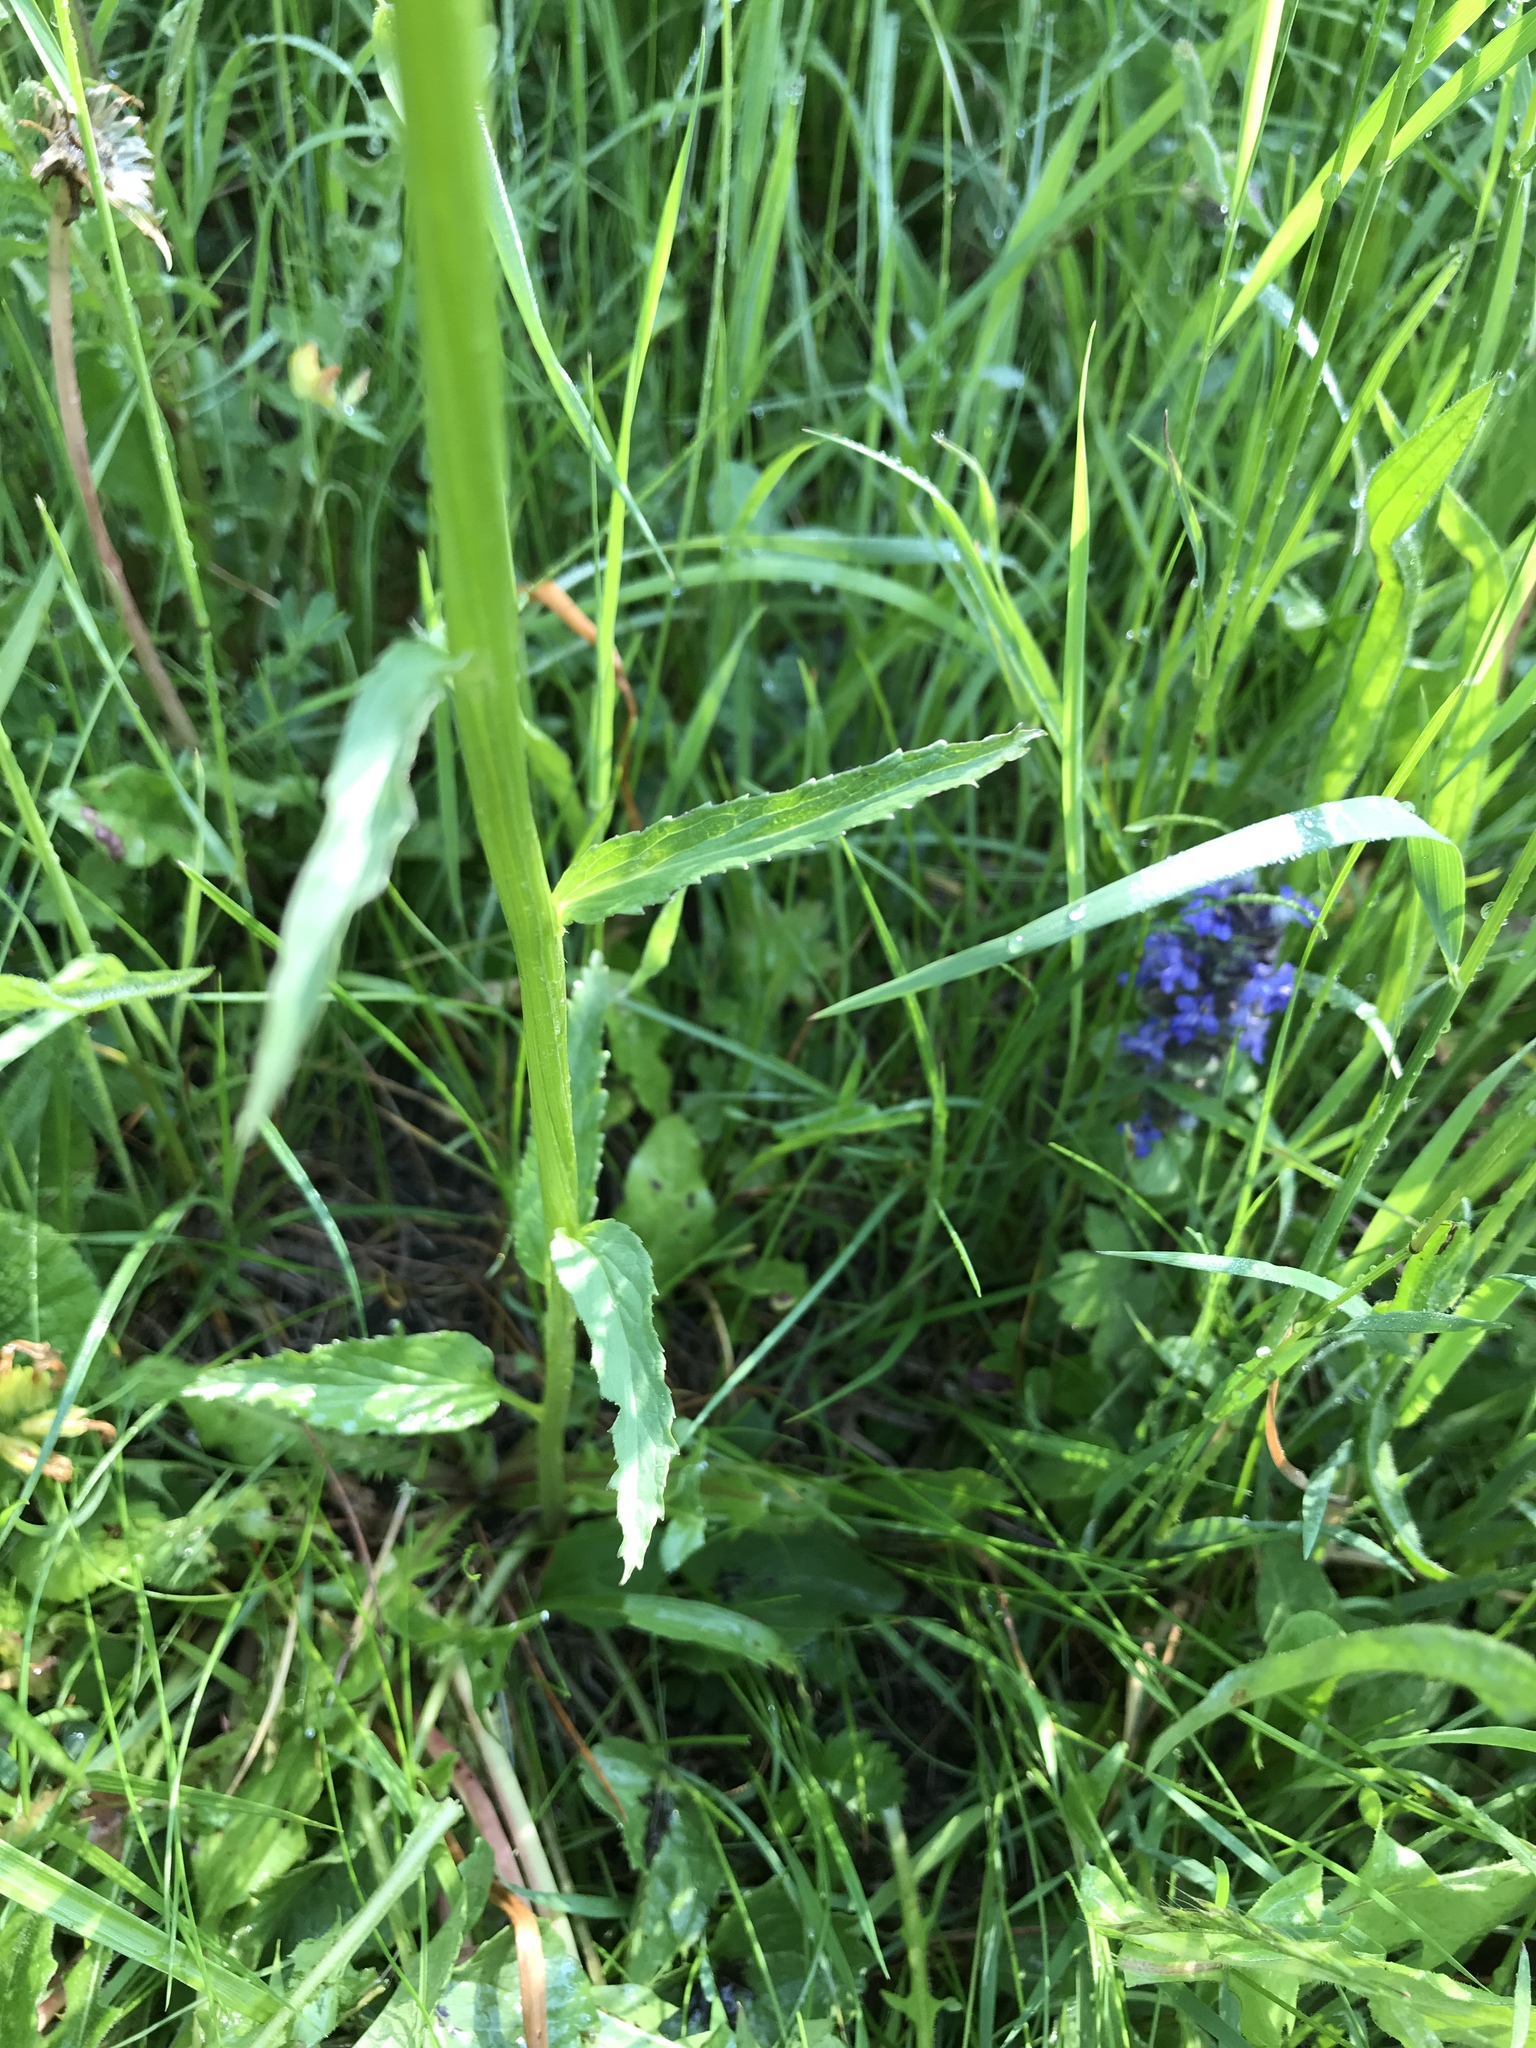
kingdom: Plantae
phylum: Tracheophyta
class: Magnoliopsida
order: Asterales
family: Campanulaceae
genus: Phyteuma
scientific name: Phyteuma spicatum
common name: Spiked rampion
